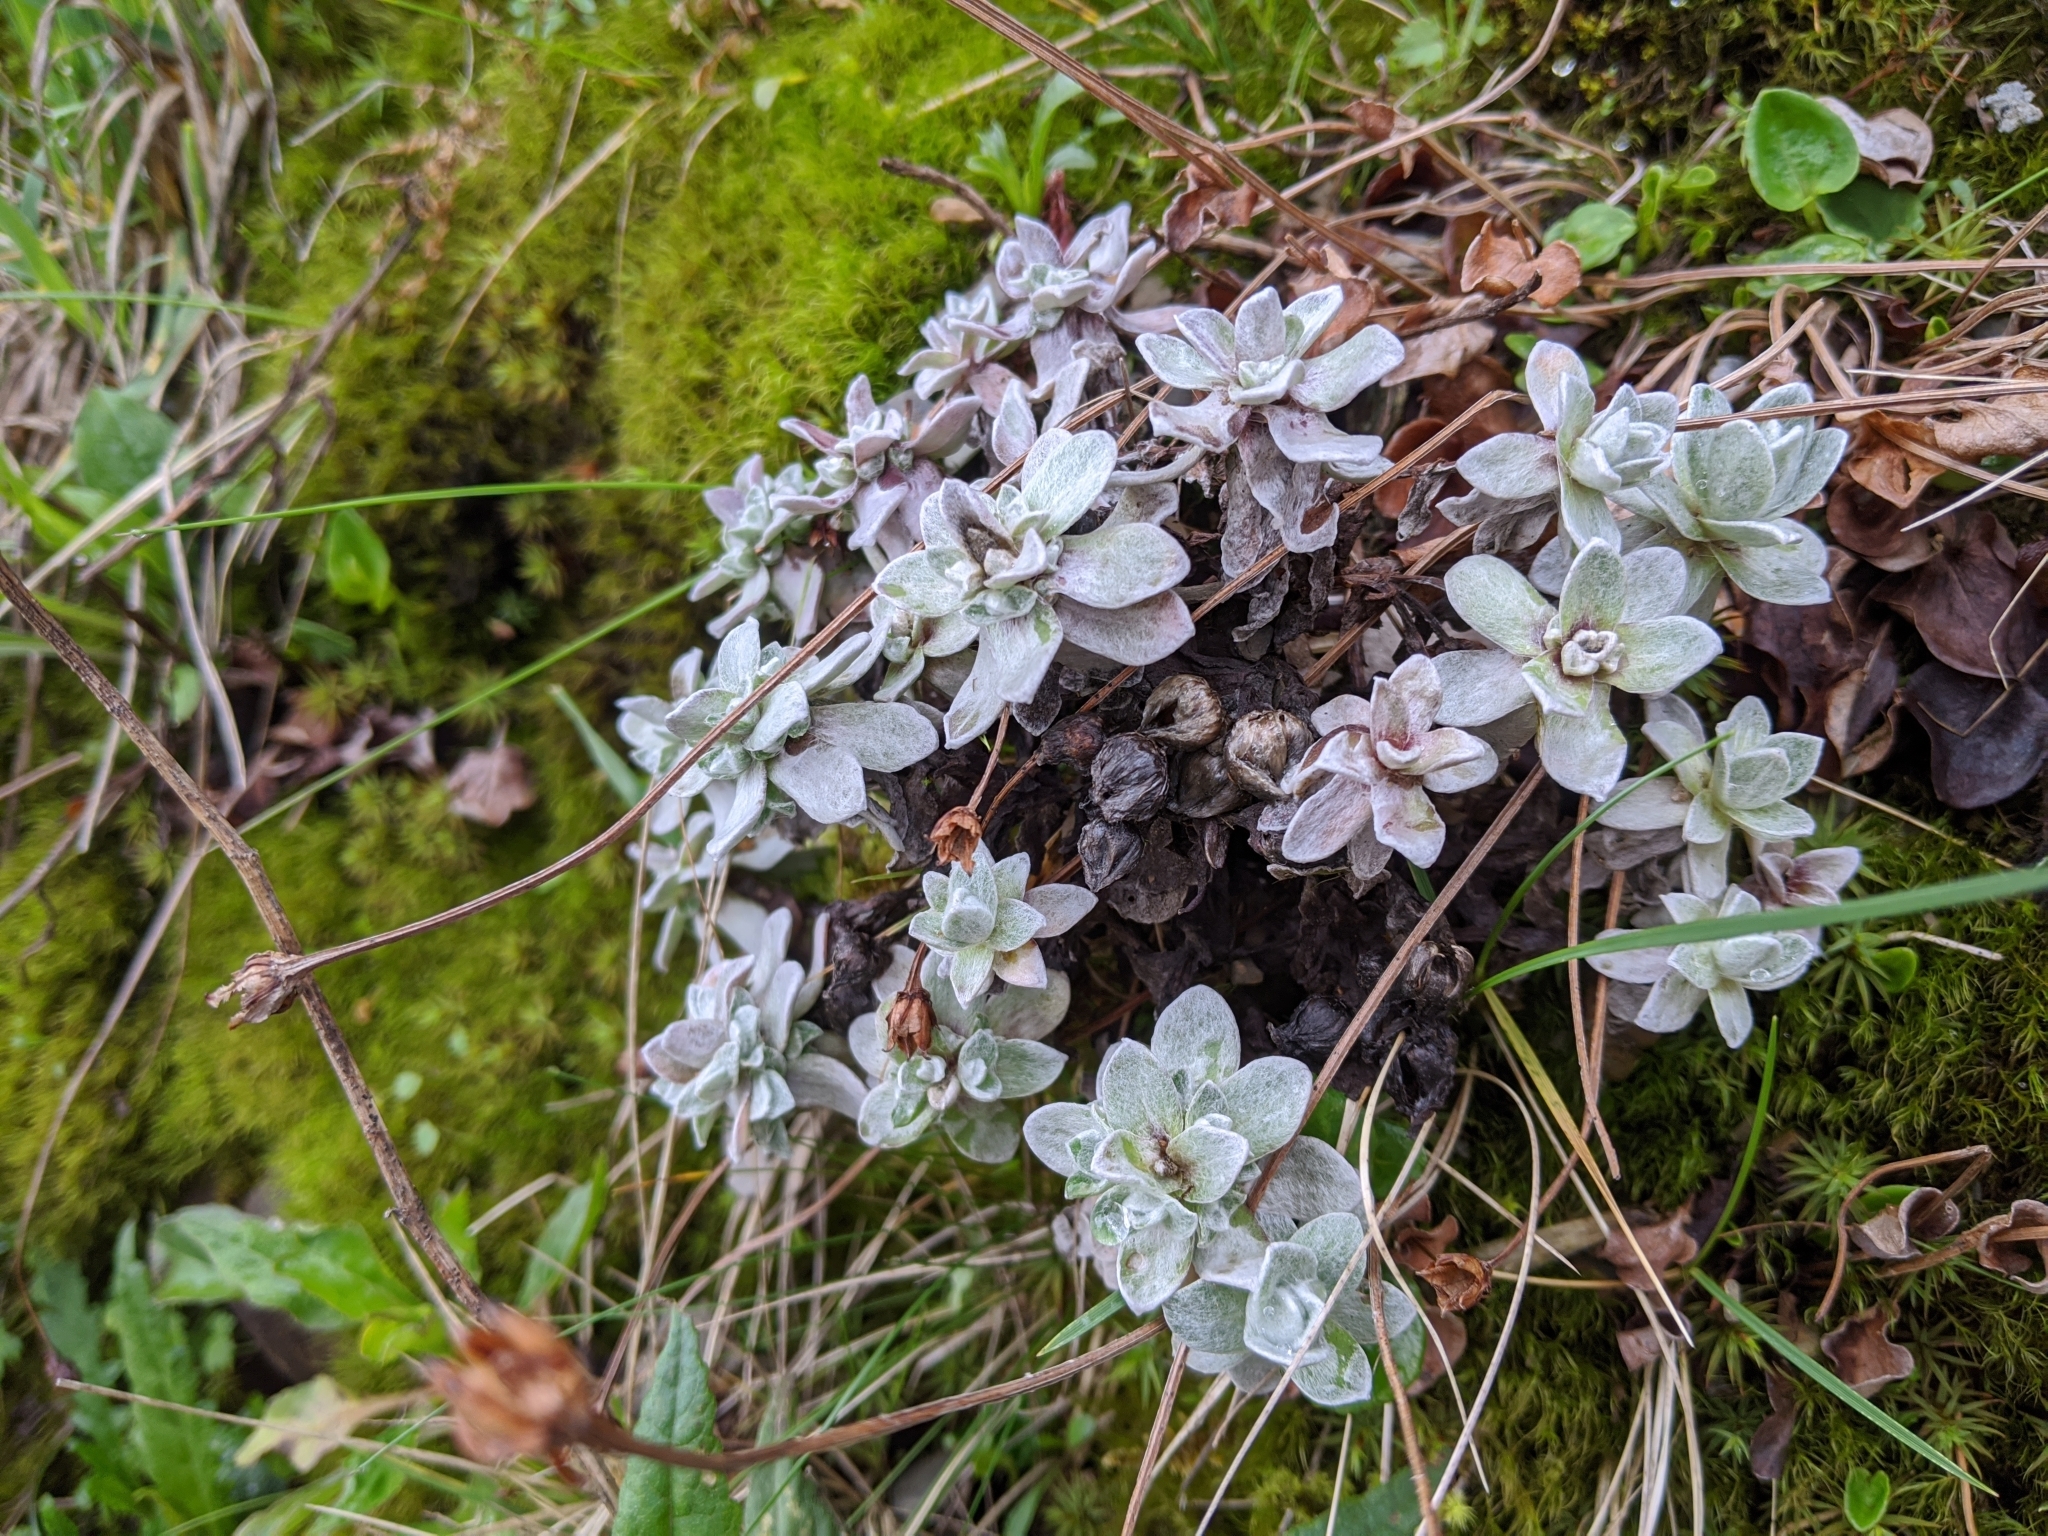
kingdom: Plantae
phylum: Tracheophyta
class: Magnoliopsida
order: Asterales
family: Asteraceae
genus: Anaphalis
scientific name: Anaphalis nepalensis
